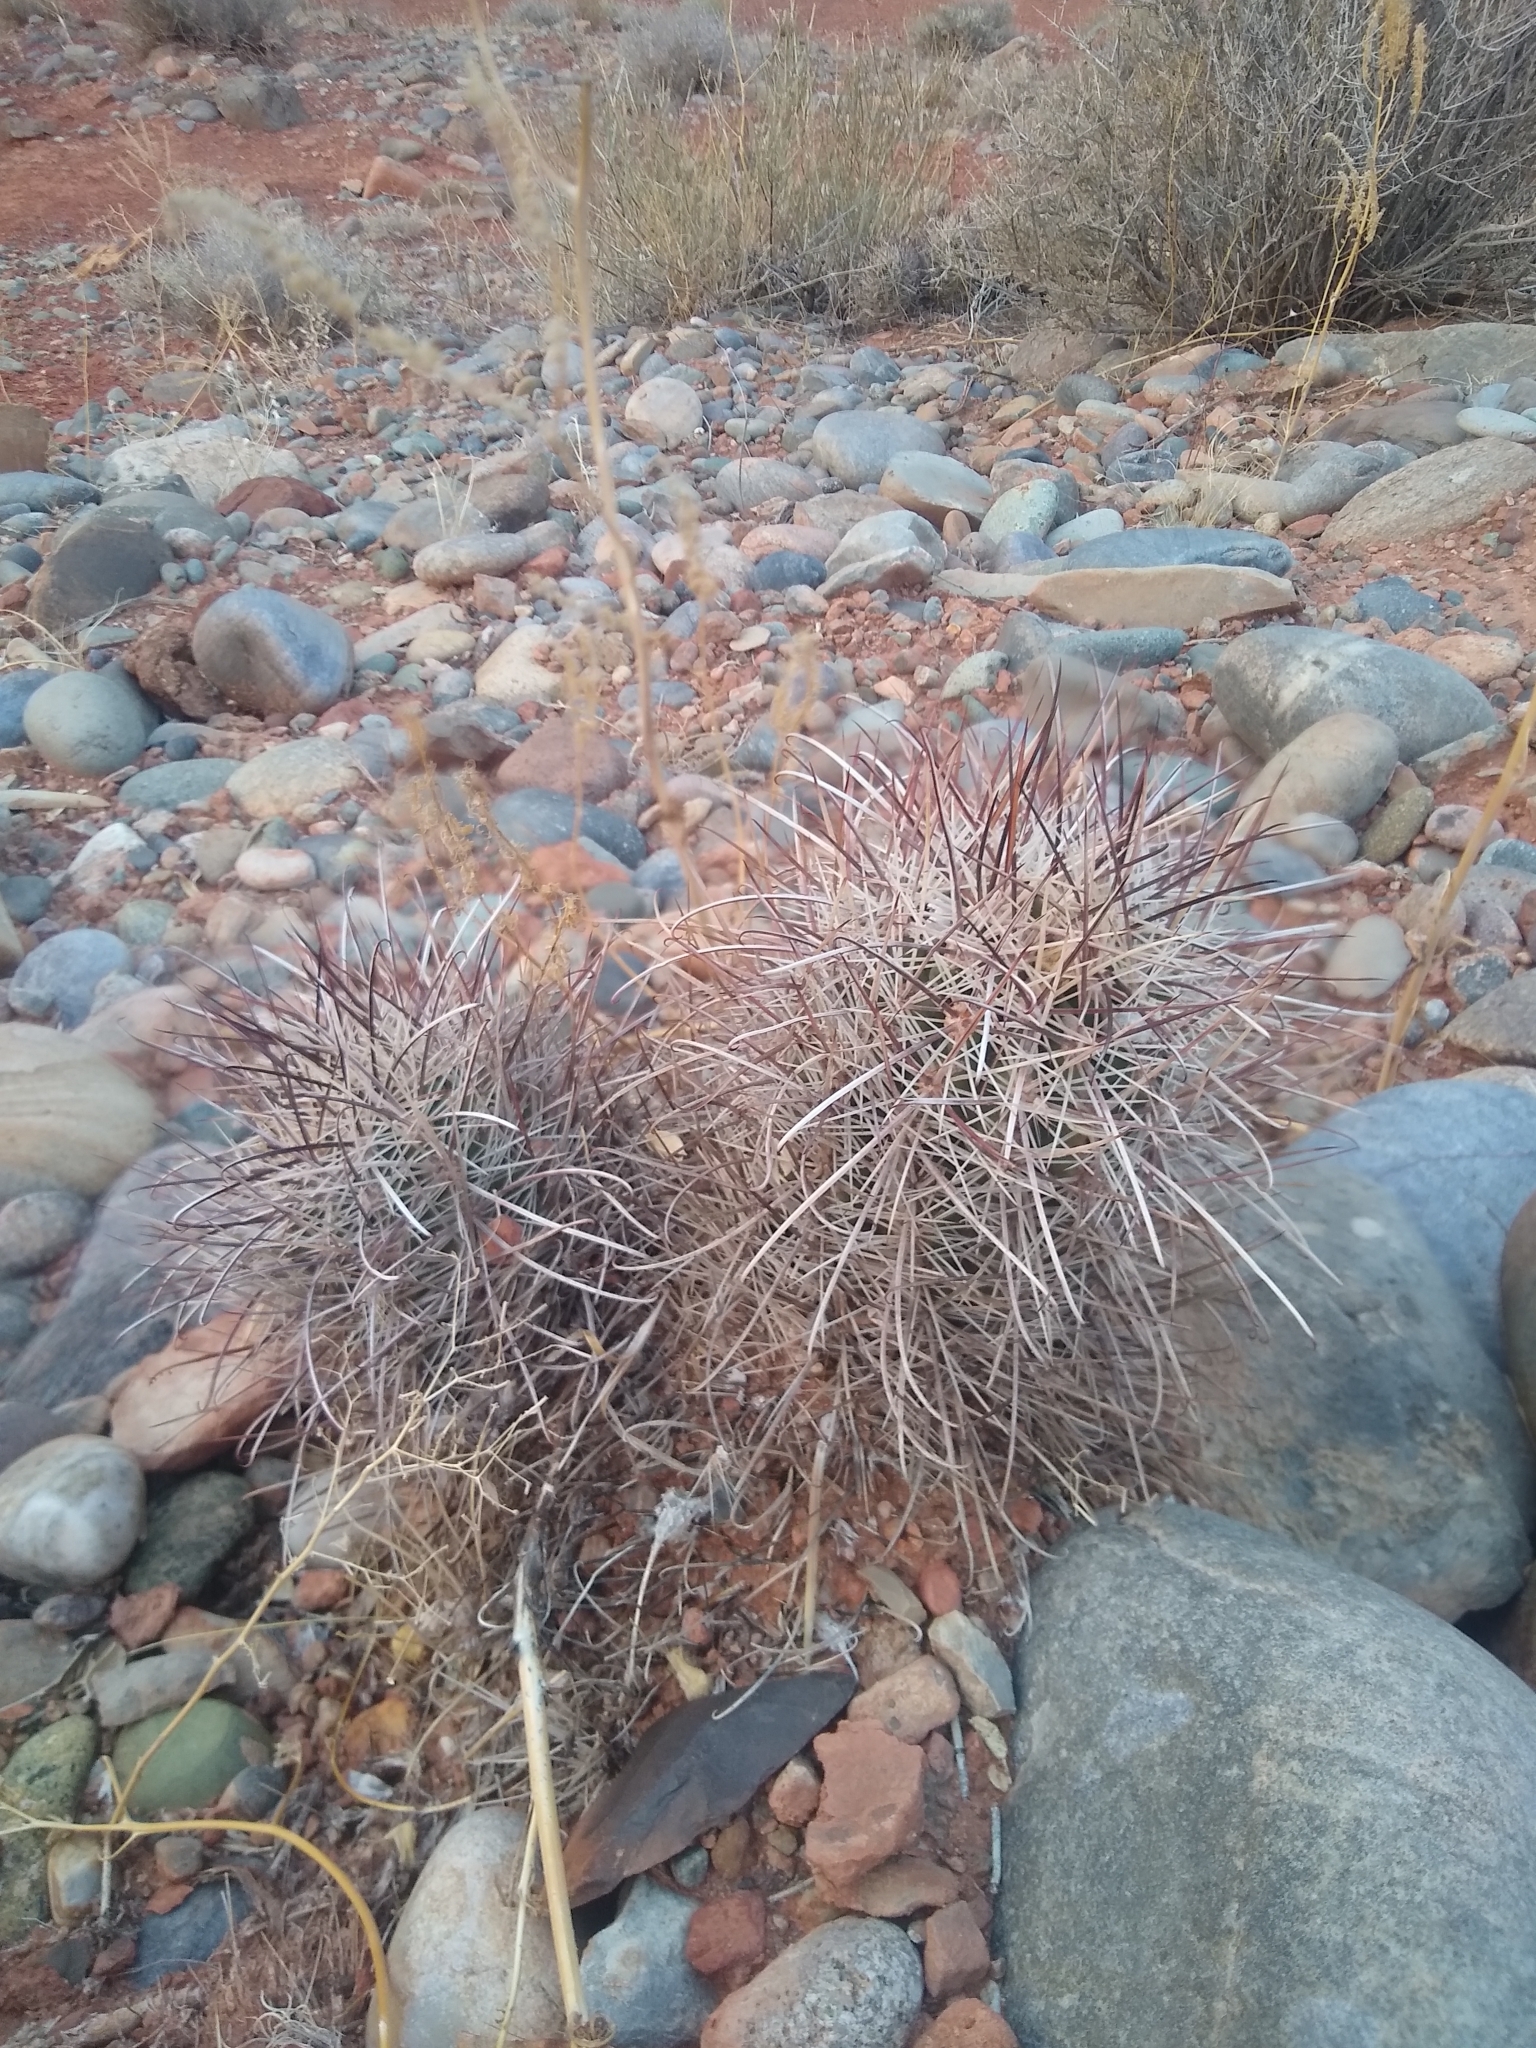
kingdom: Plantae
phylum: Tracheophyta
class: Magnoliopsida
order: Caryophyllales
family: Cactaceae
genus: Sclerocactus
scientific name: Sclerocactus parviflorus
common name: Small-flower fishhook cactus
